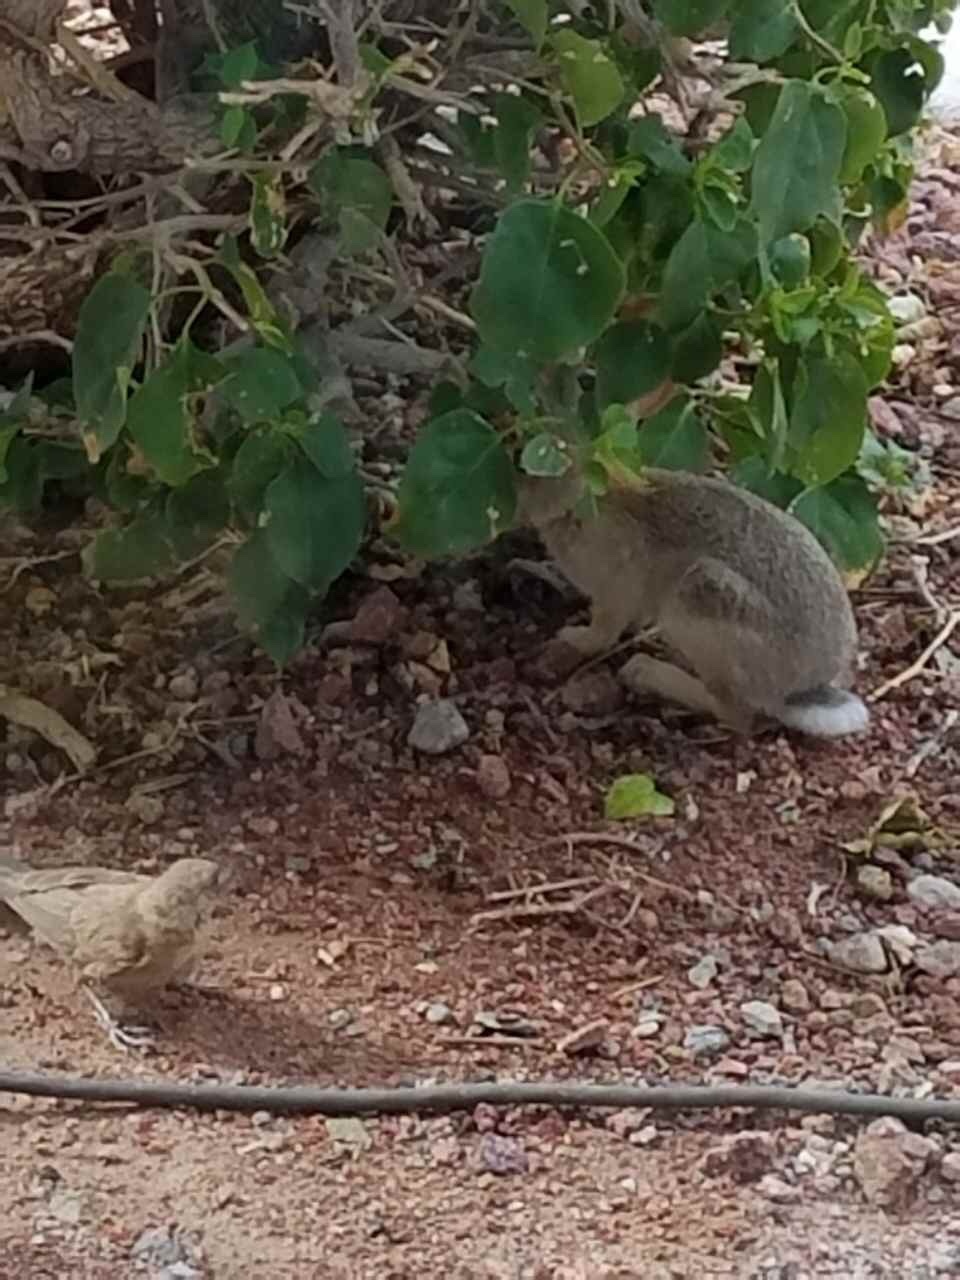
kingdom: Animalia
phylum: Chordata
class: Mammalia
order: Lagomorpha
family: Leporidae
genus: Sylvilagus
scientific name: Sylvilagus floridanus
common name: Eastern cottontail
